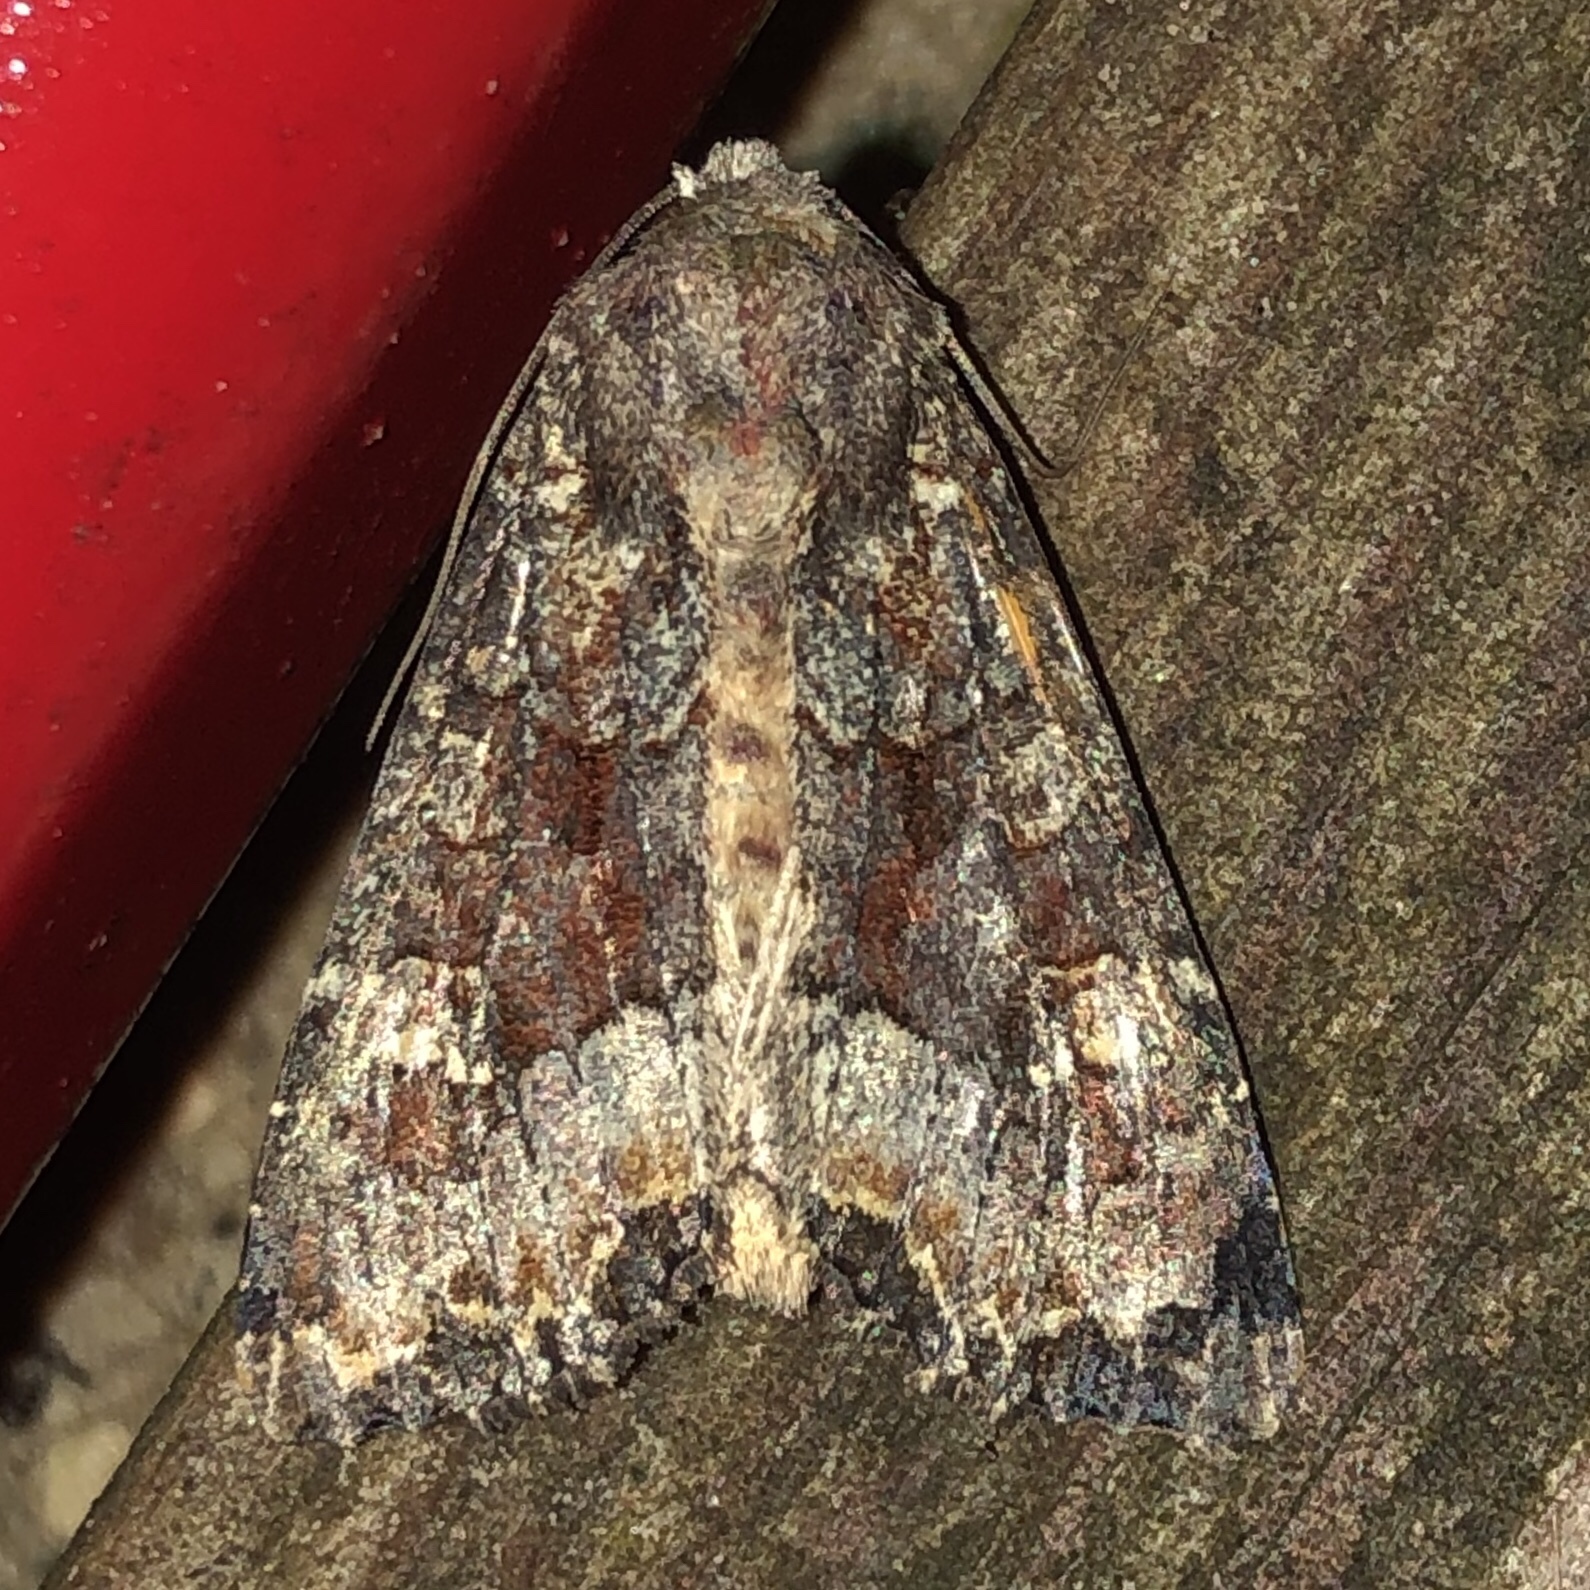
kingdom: Animalia
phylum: Arthropoda
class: Insecta
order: Lepidoptera
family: Noctuidae
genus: Apamea
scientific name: Apamea amputatrix
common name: Yellow-headed cutworm moth
